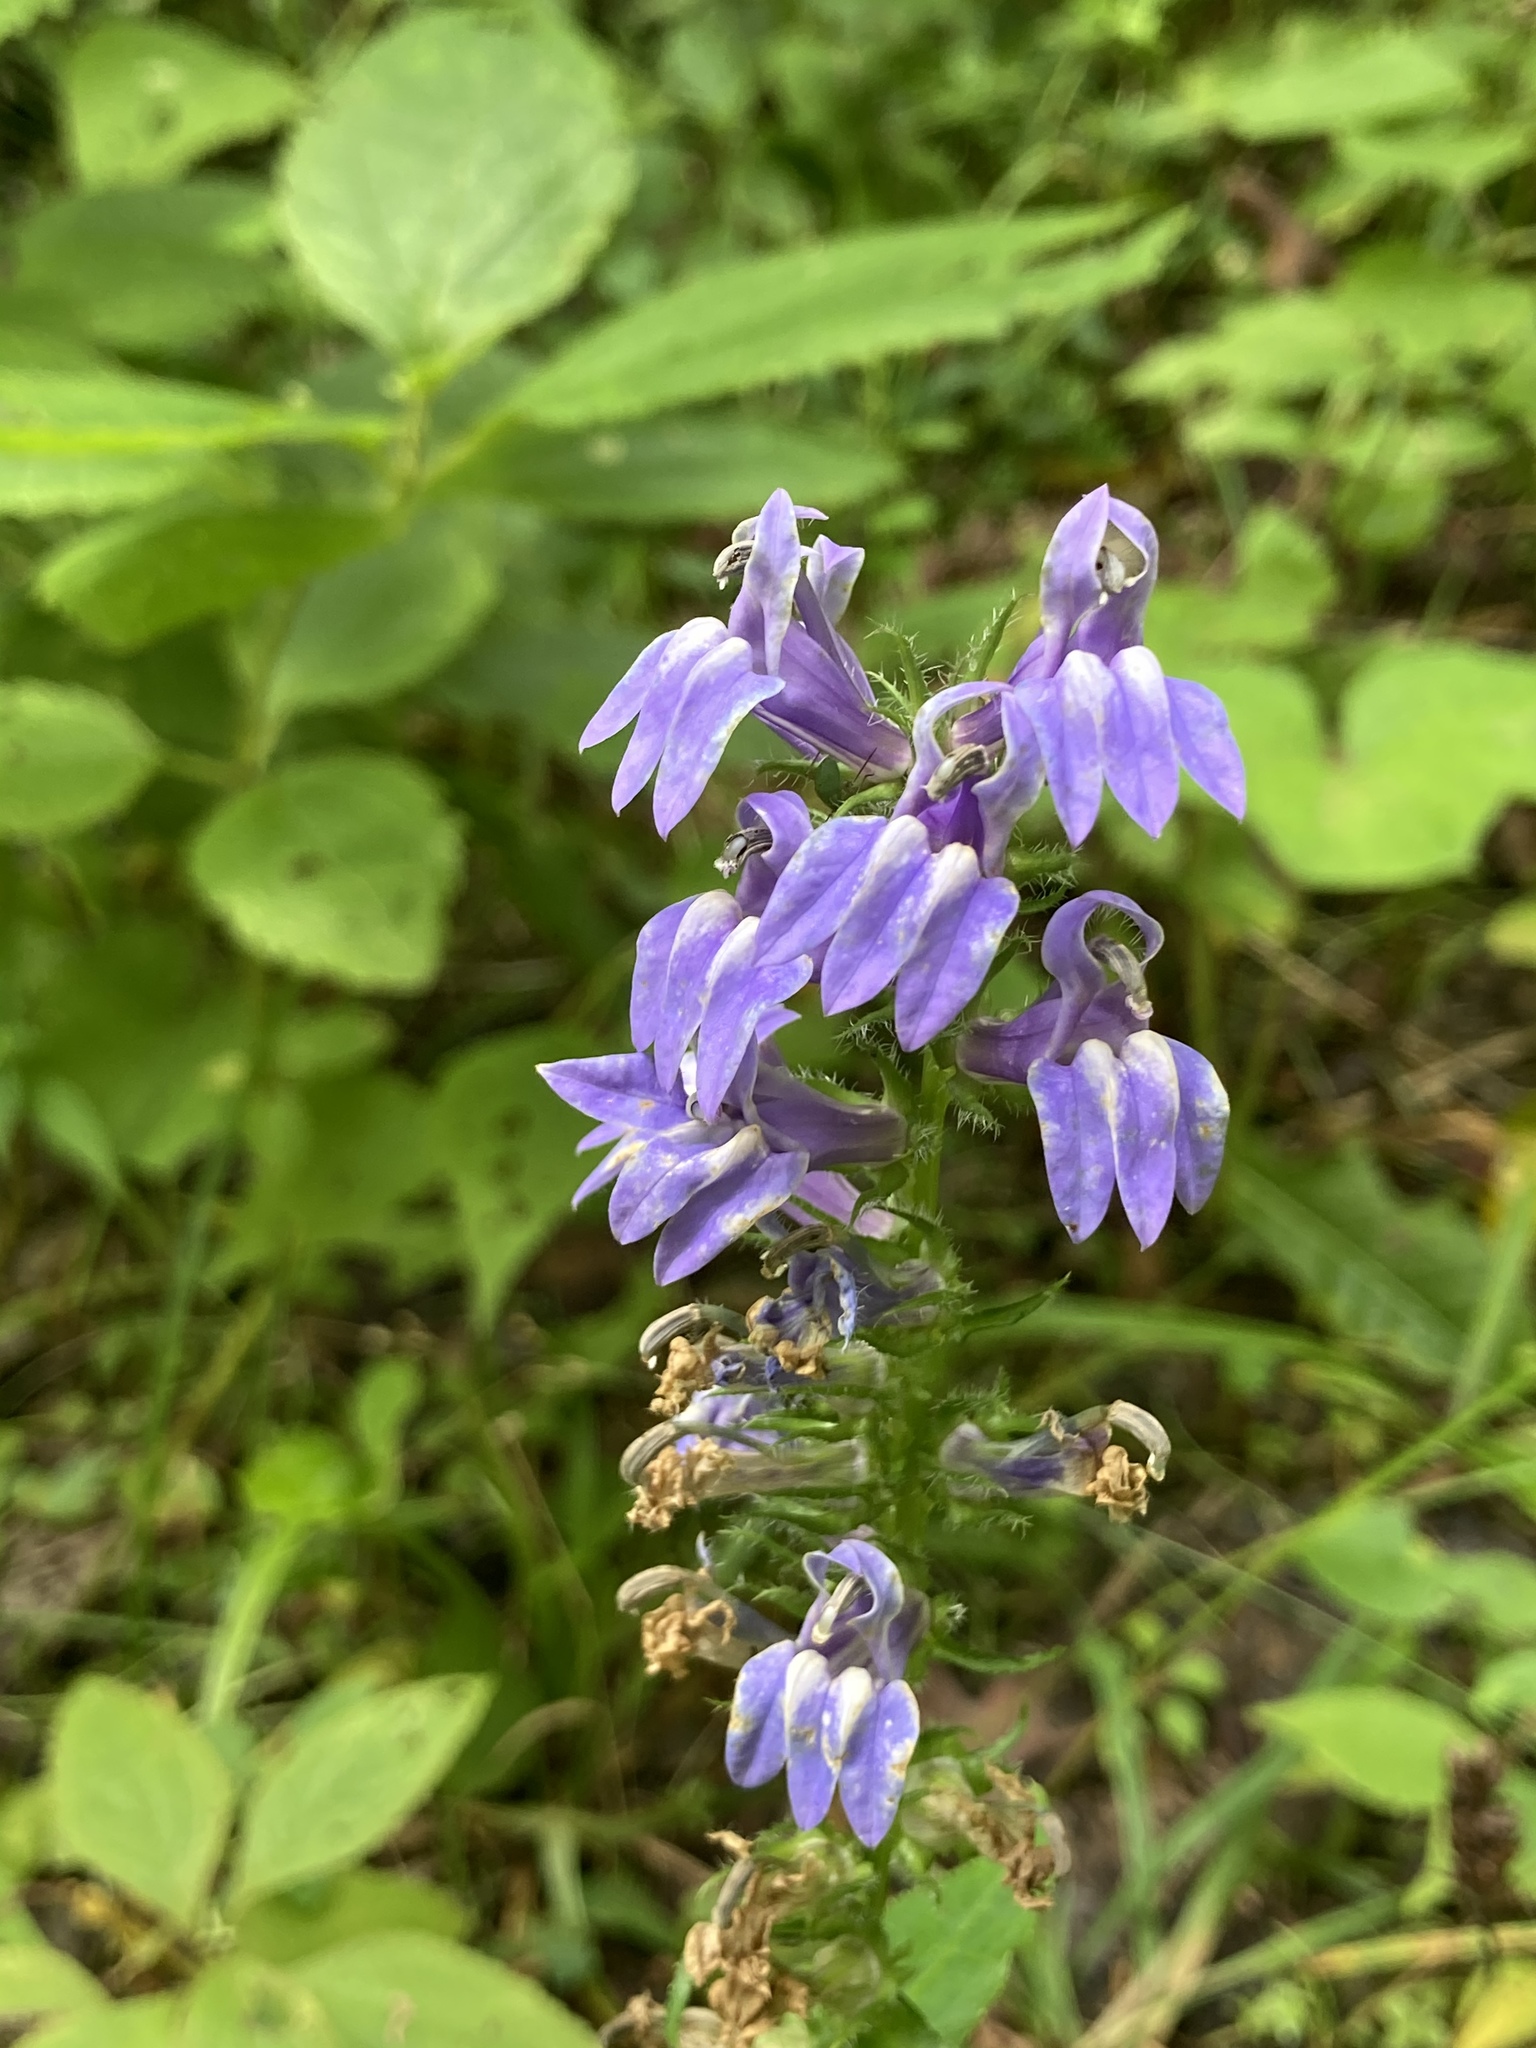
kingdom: Plantae
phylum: Tracheophyta
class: Magnoliopsida
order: Asterales
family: Campanulaceae
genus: Lobelia
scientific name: Lobelia siphilitica
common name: Great lobelia
